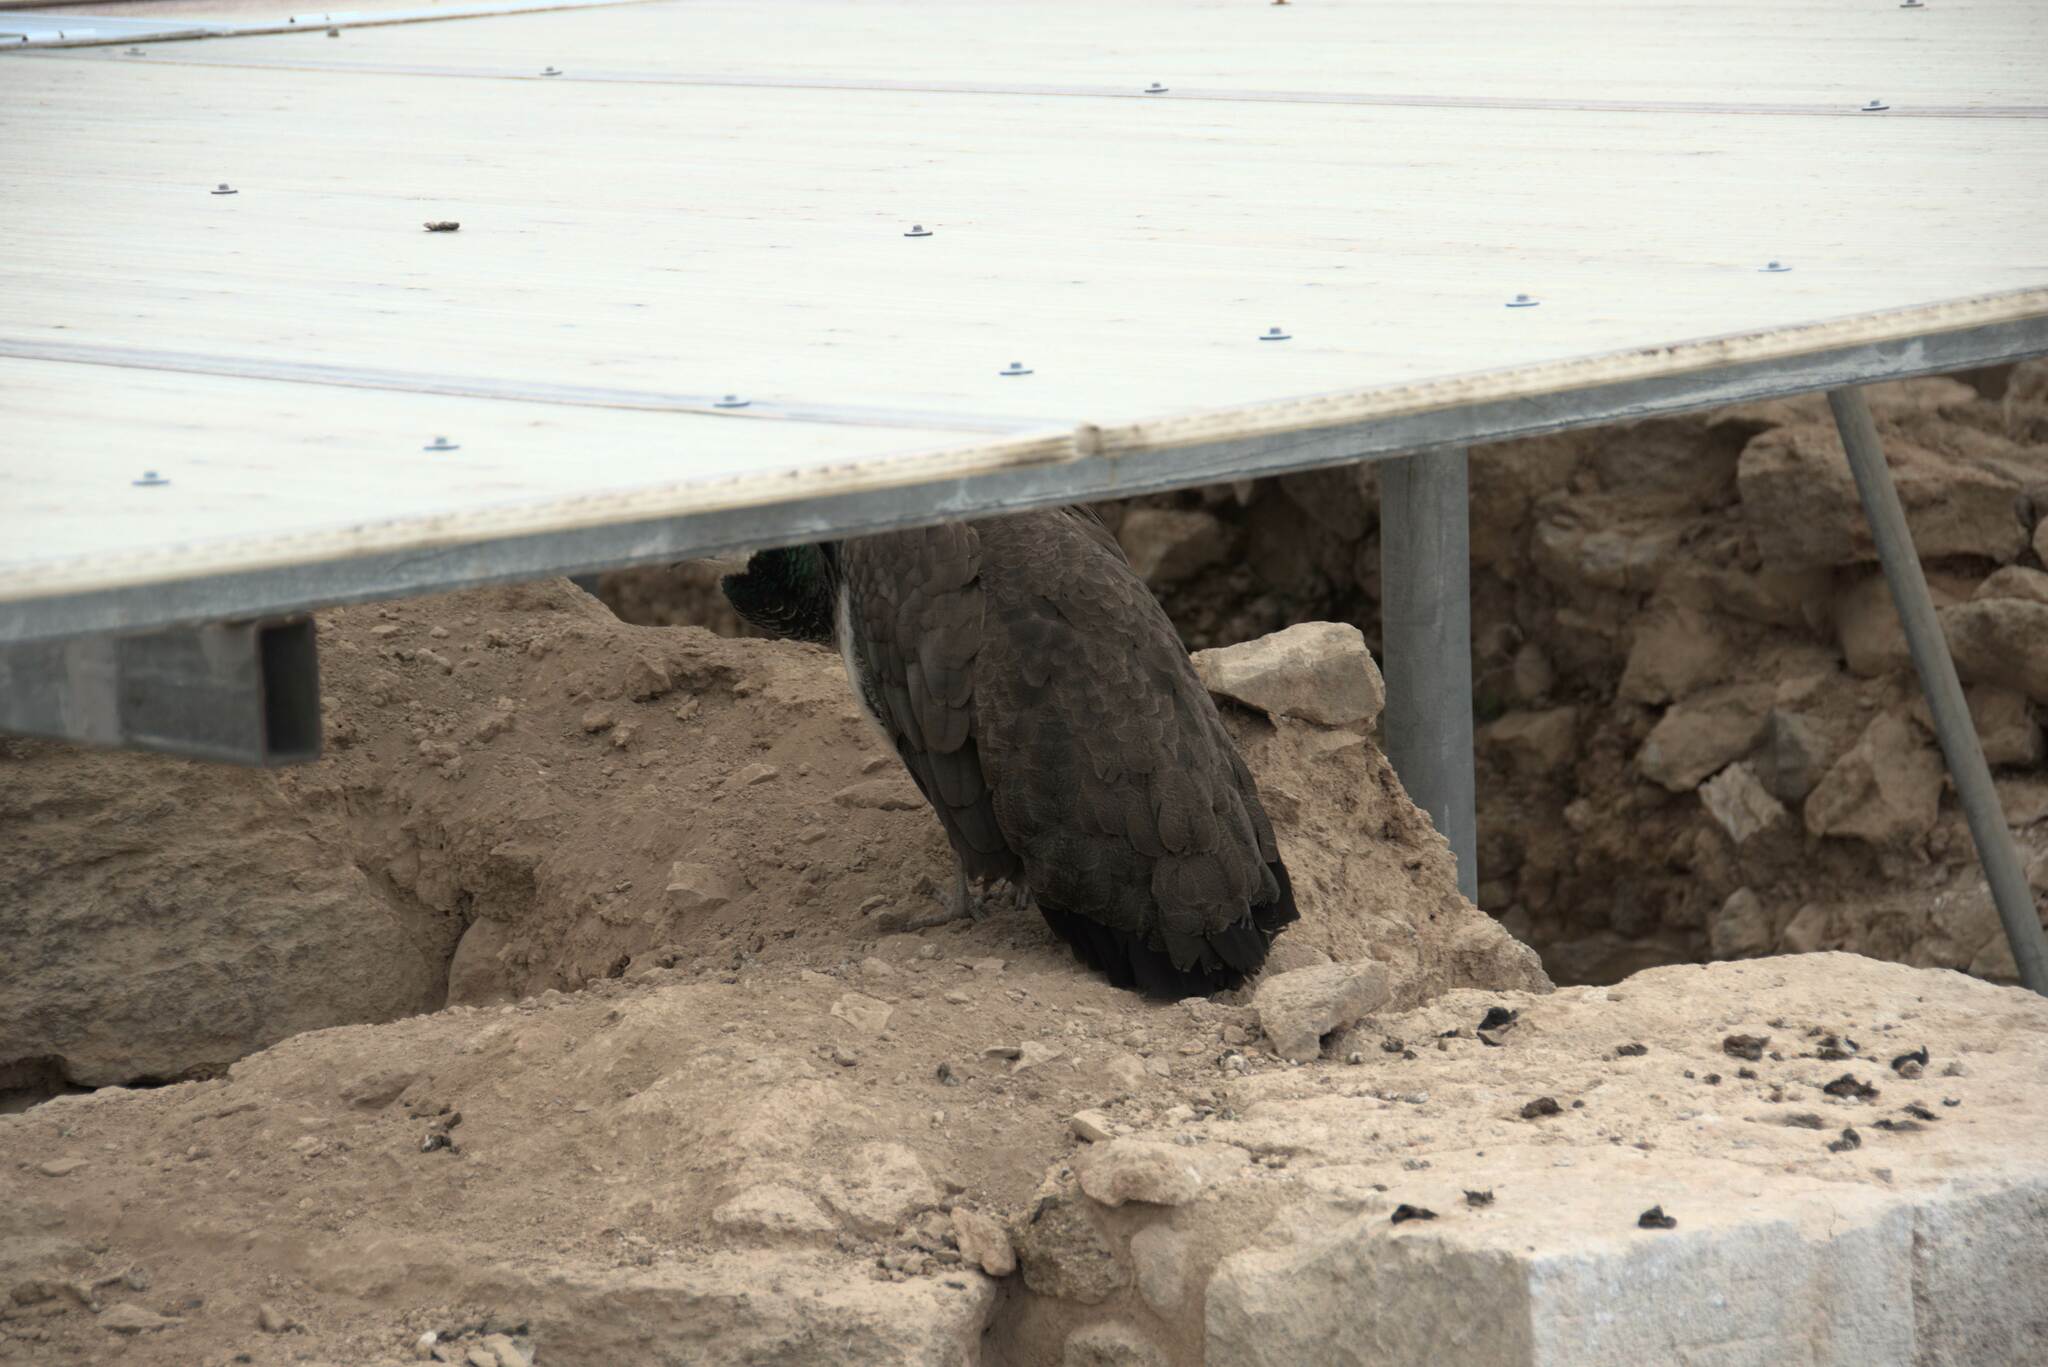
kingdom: Animalia
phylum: Chordata
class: Aves
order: Galliformes
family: Phasianidae
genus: Pavo
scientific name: Pavo cristatus
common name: Indian peafowl
